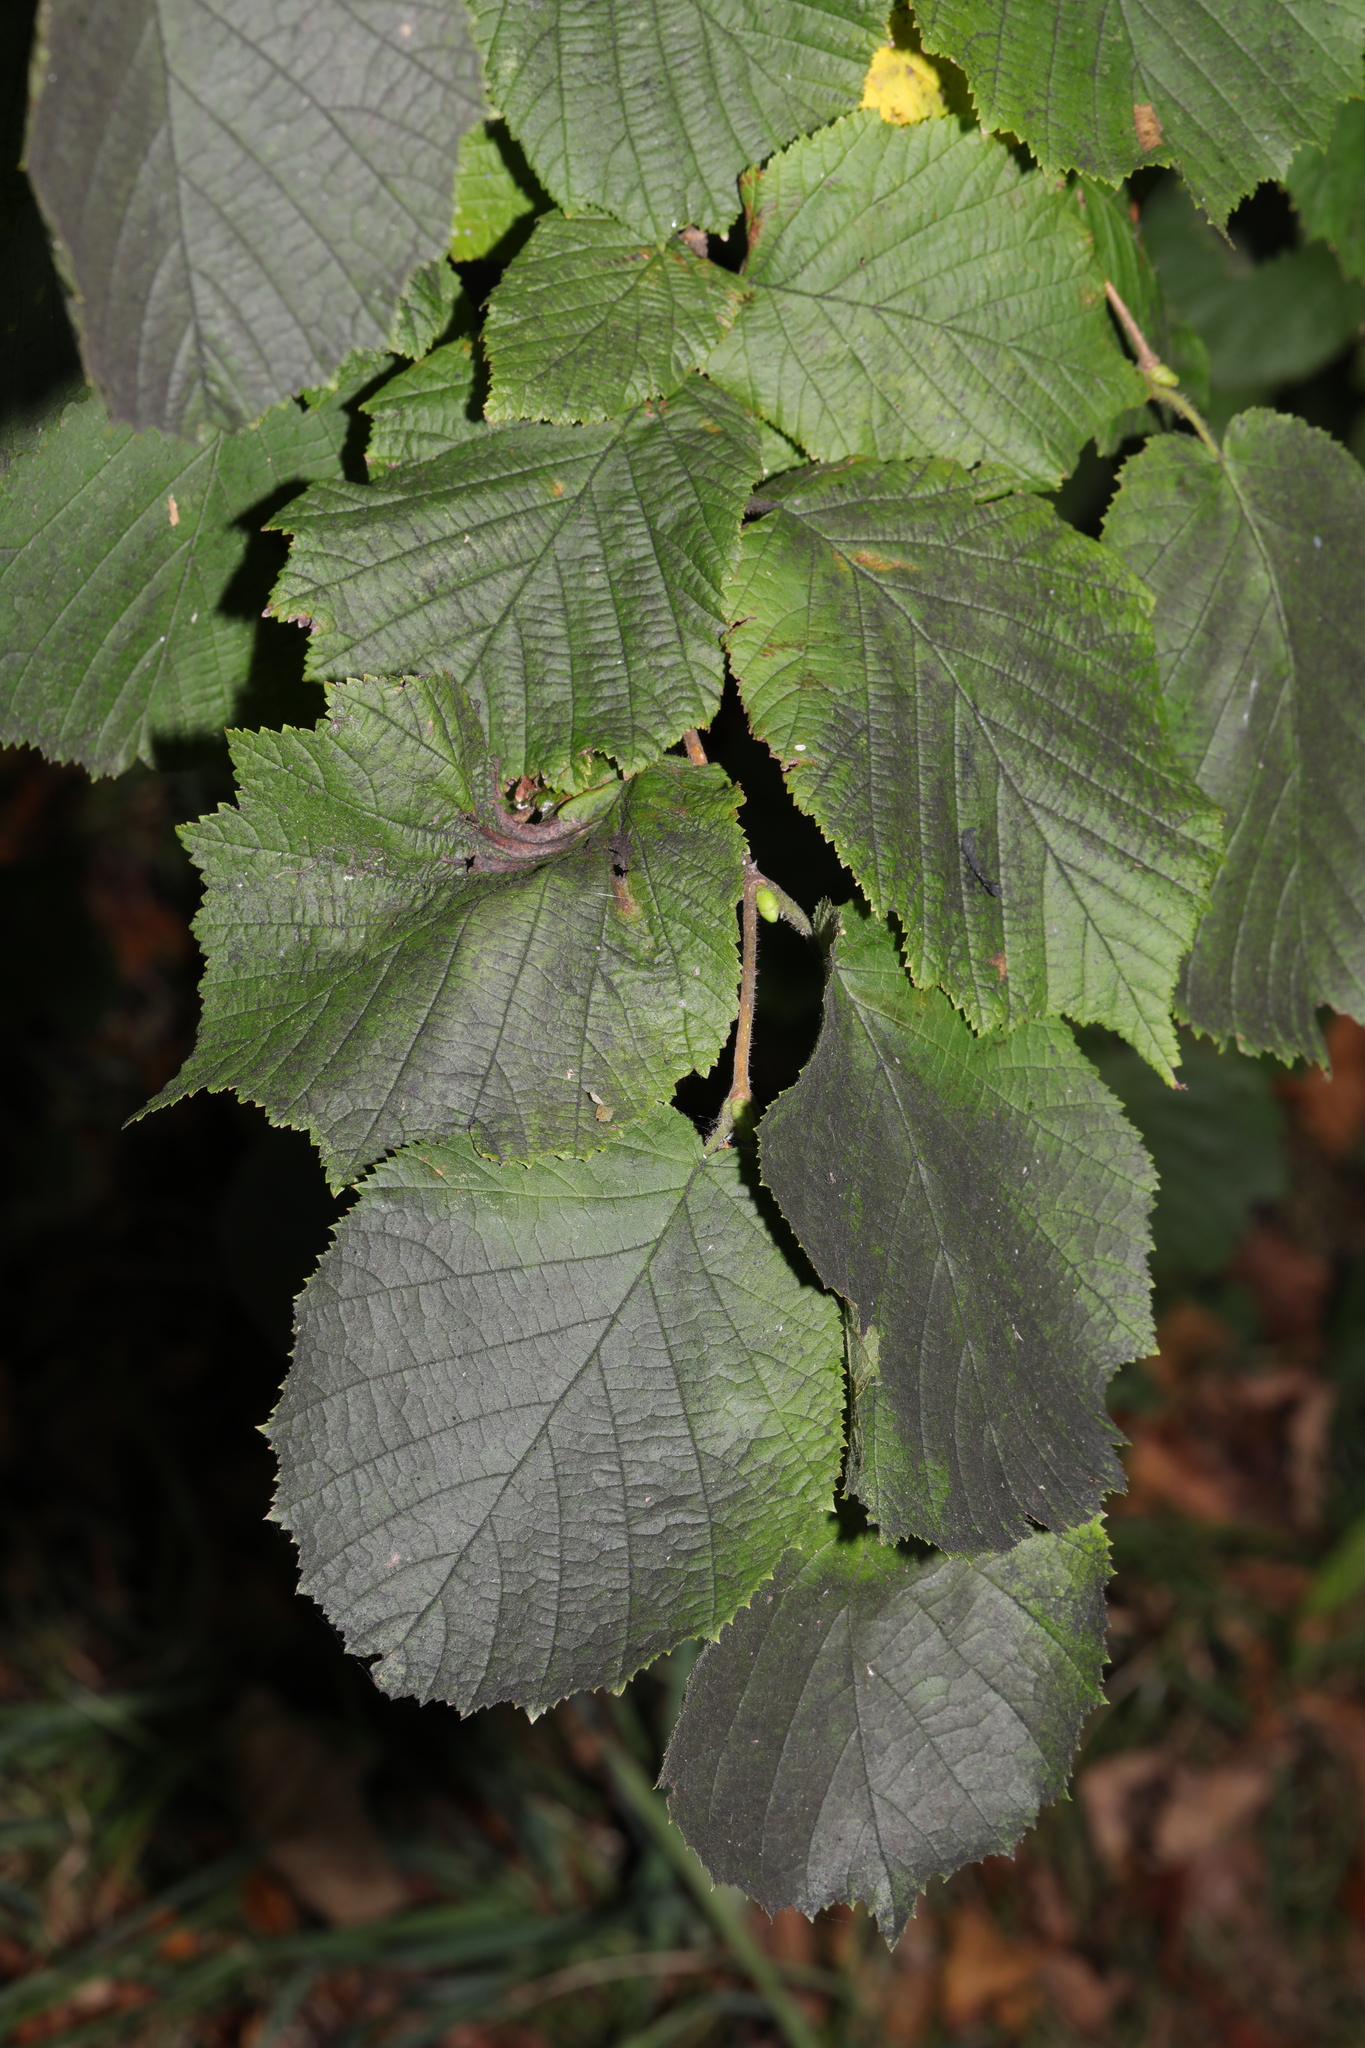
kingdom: Plantae
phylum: Tracheophyta
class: Magnoliopsida
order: Fagales
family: Betulaceae
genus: Corylus
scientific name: Corylus avellana
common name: European hazel
